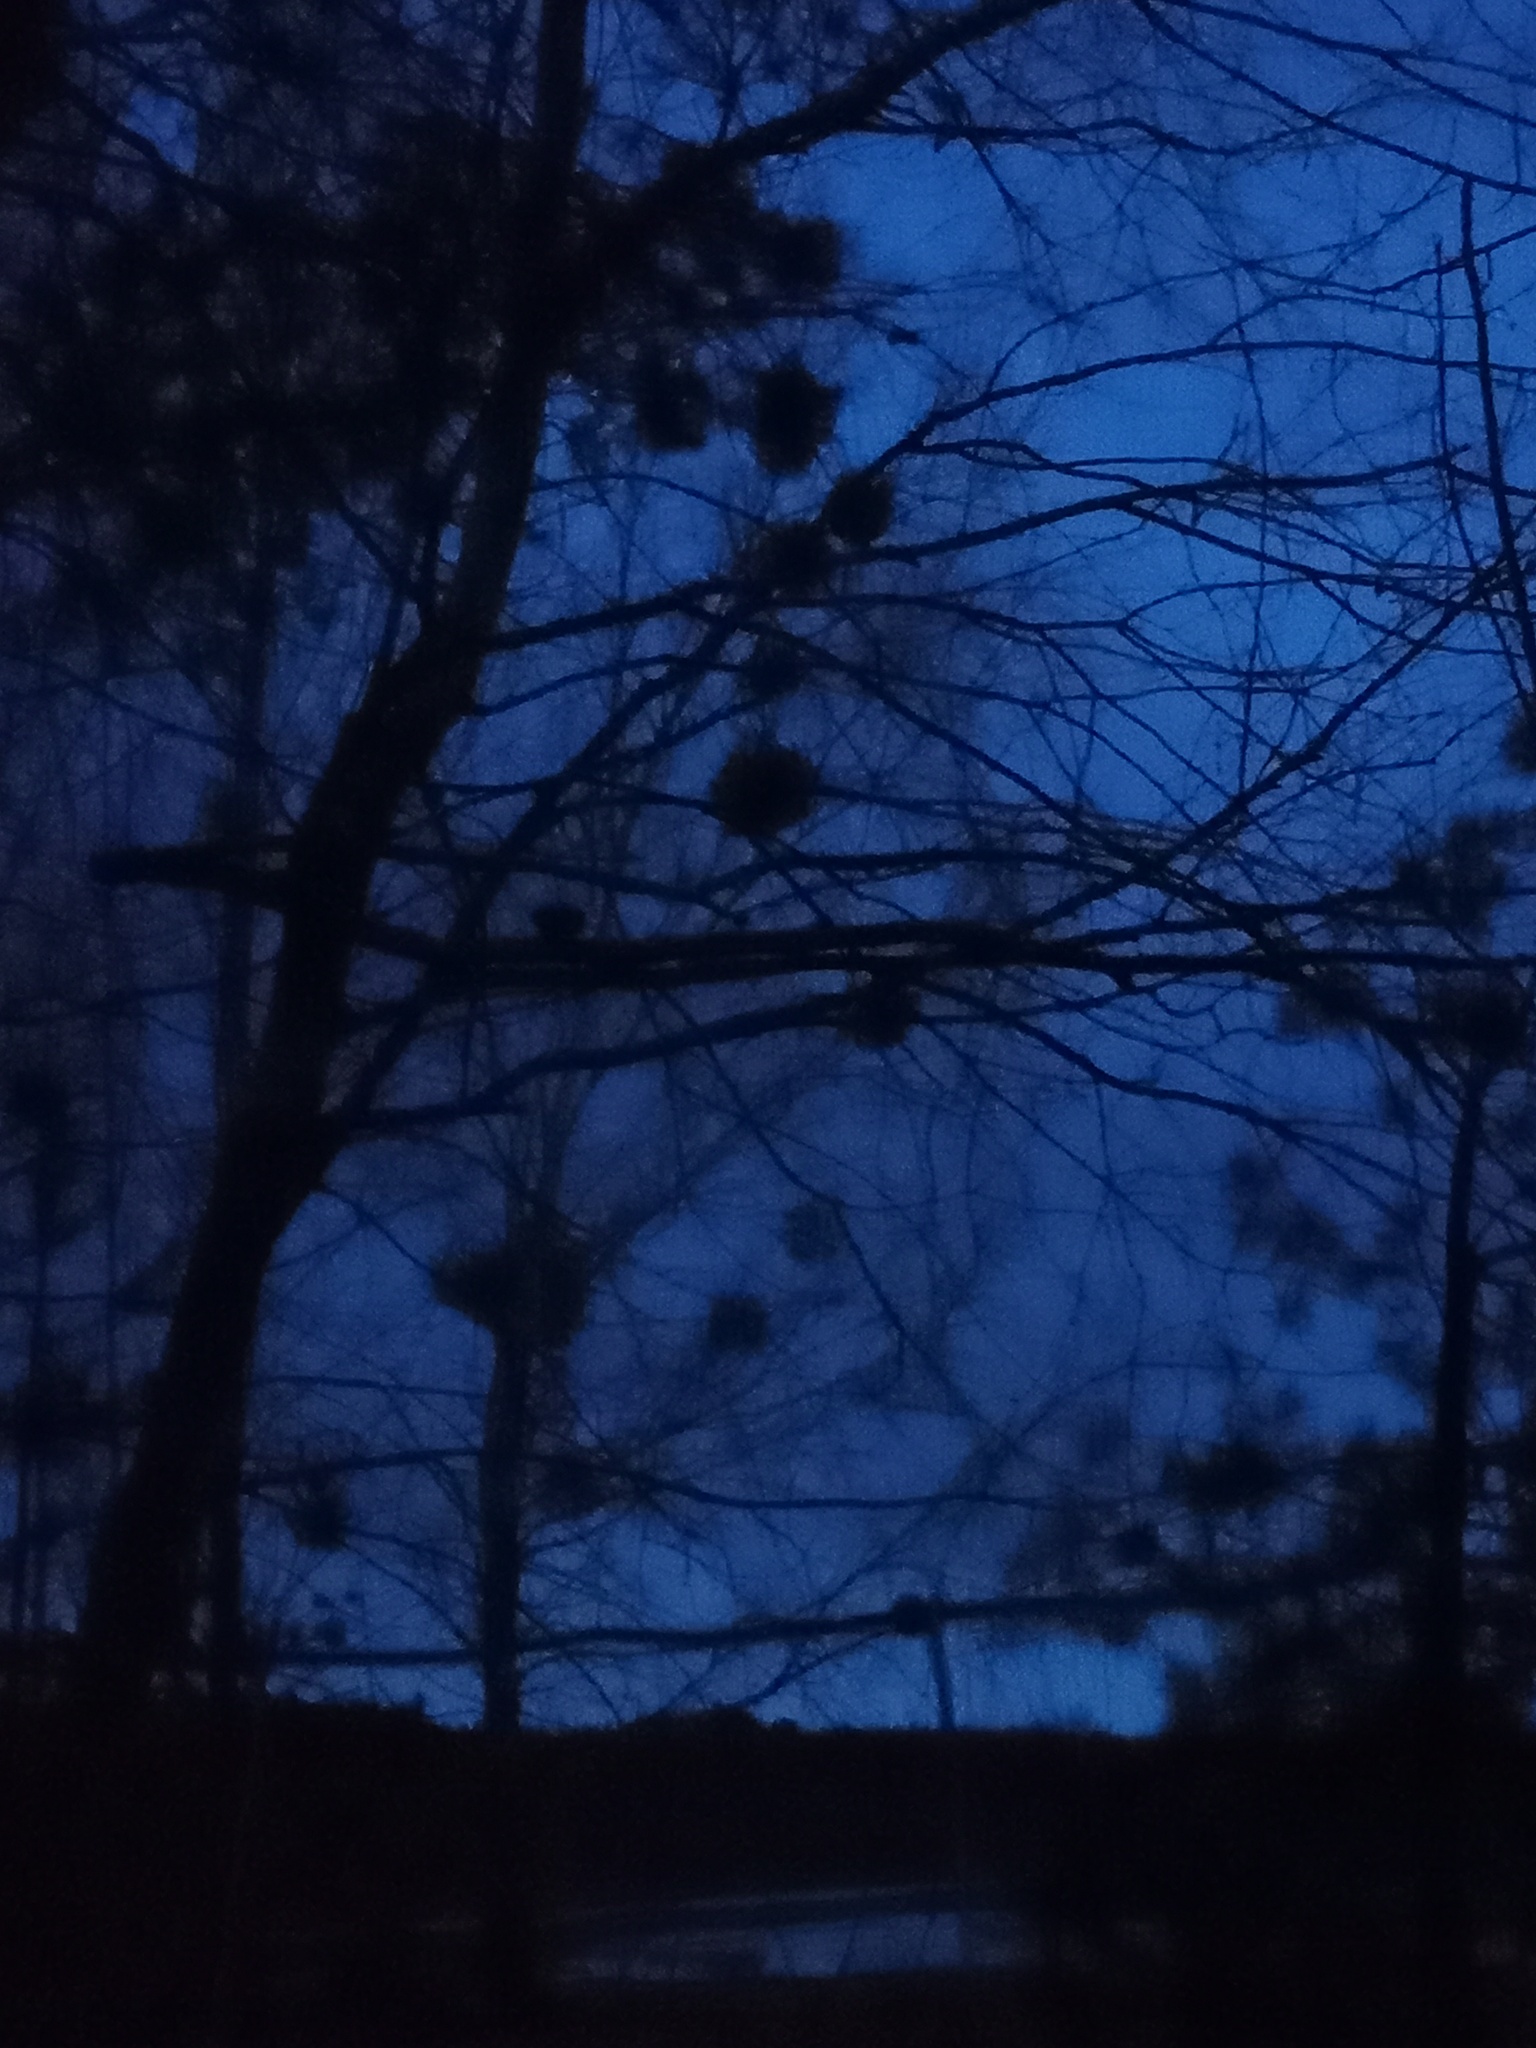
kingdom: Plantae
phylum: Tracheophyta
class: Magnoliopsida
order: Santalales
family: Viscaceae
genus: Viscum
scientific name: Viscum album
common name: Mistletoe
